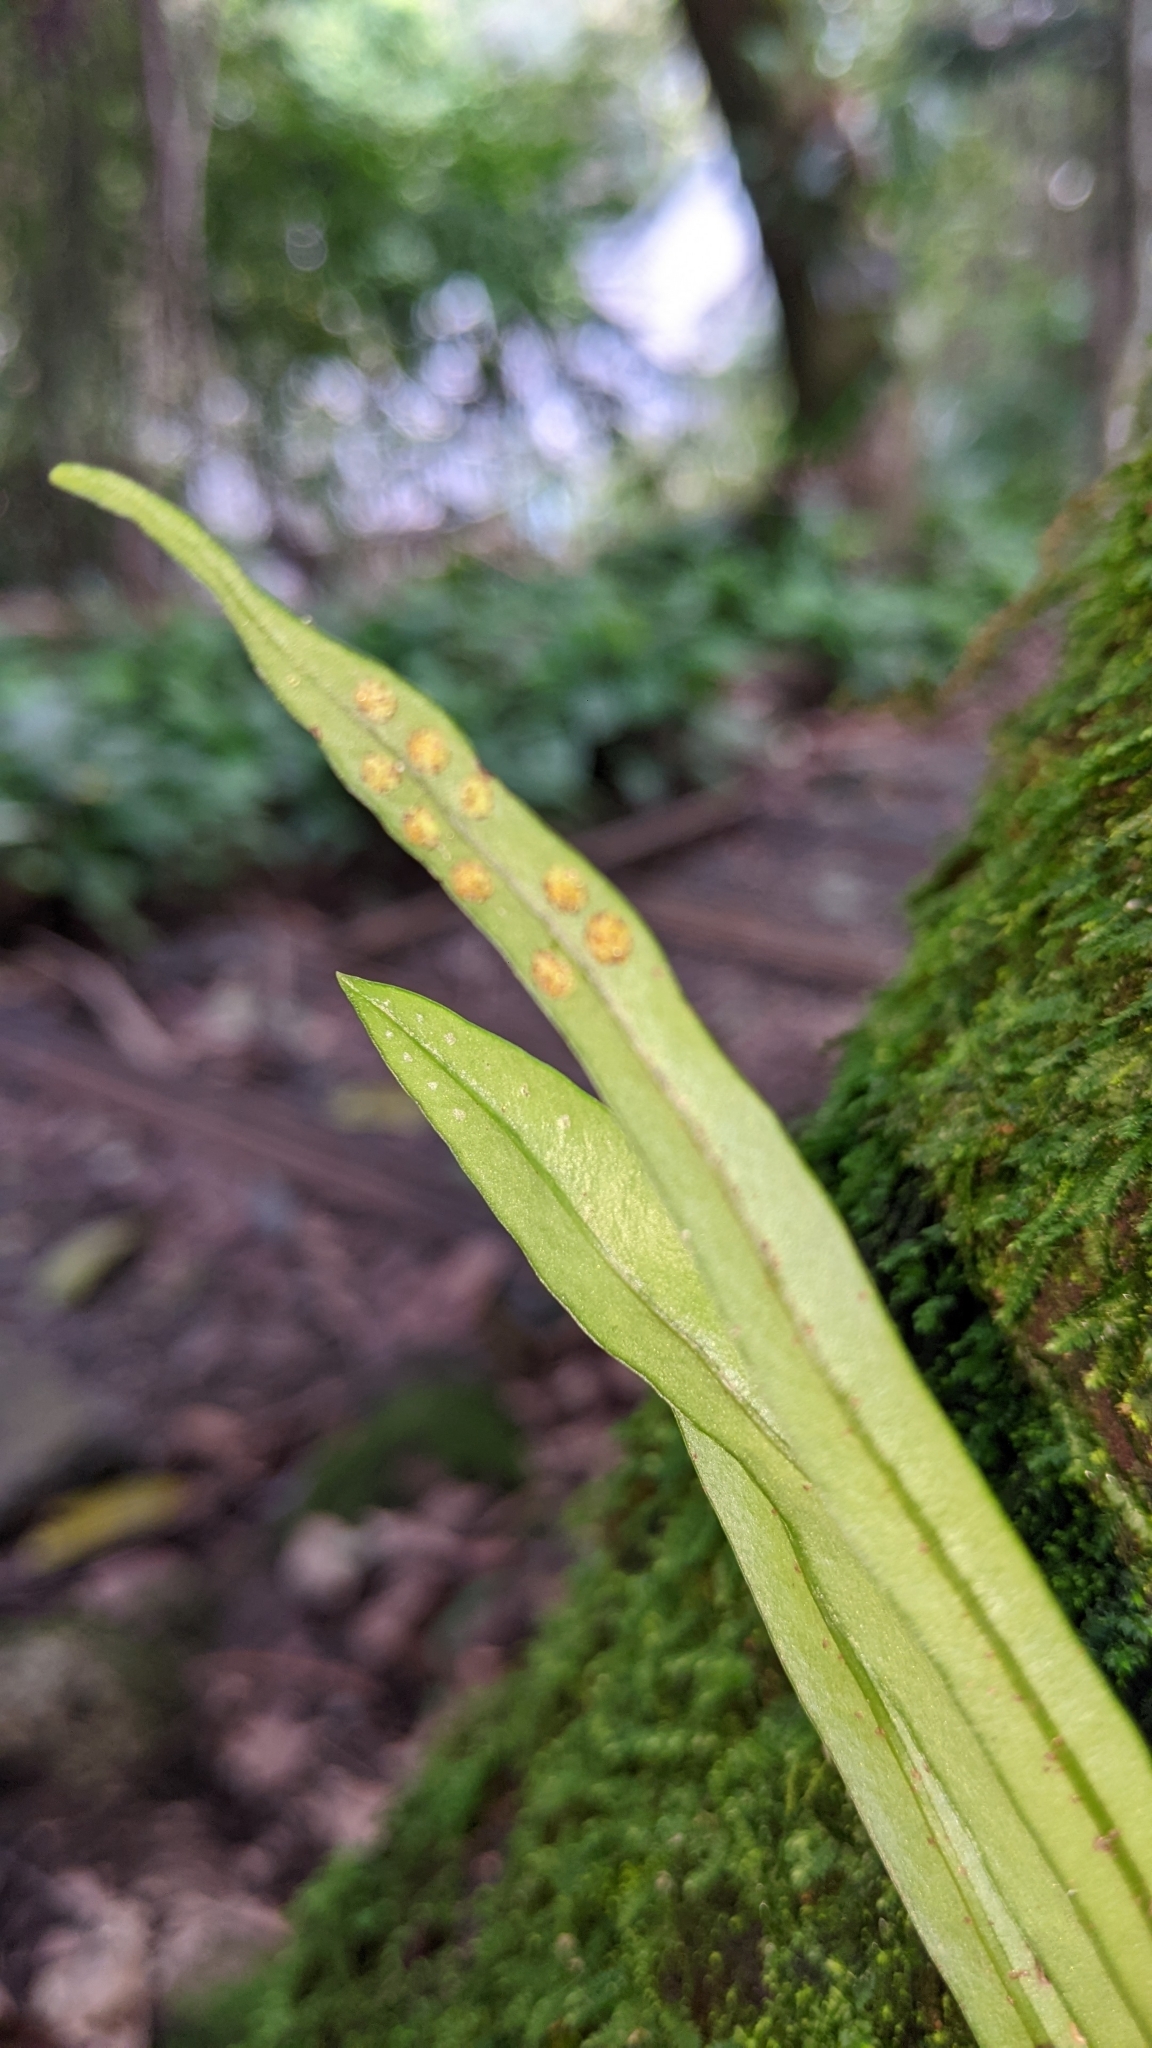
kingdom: Plantae
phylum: Tracheophyta
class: Polypodiopsida
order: Polypodiales
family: Polypodiaceae
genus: Lepisorus
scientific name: Lepisorus thunbergianus
